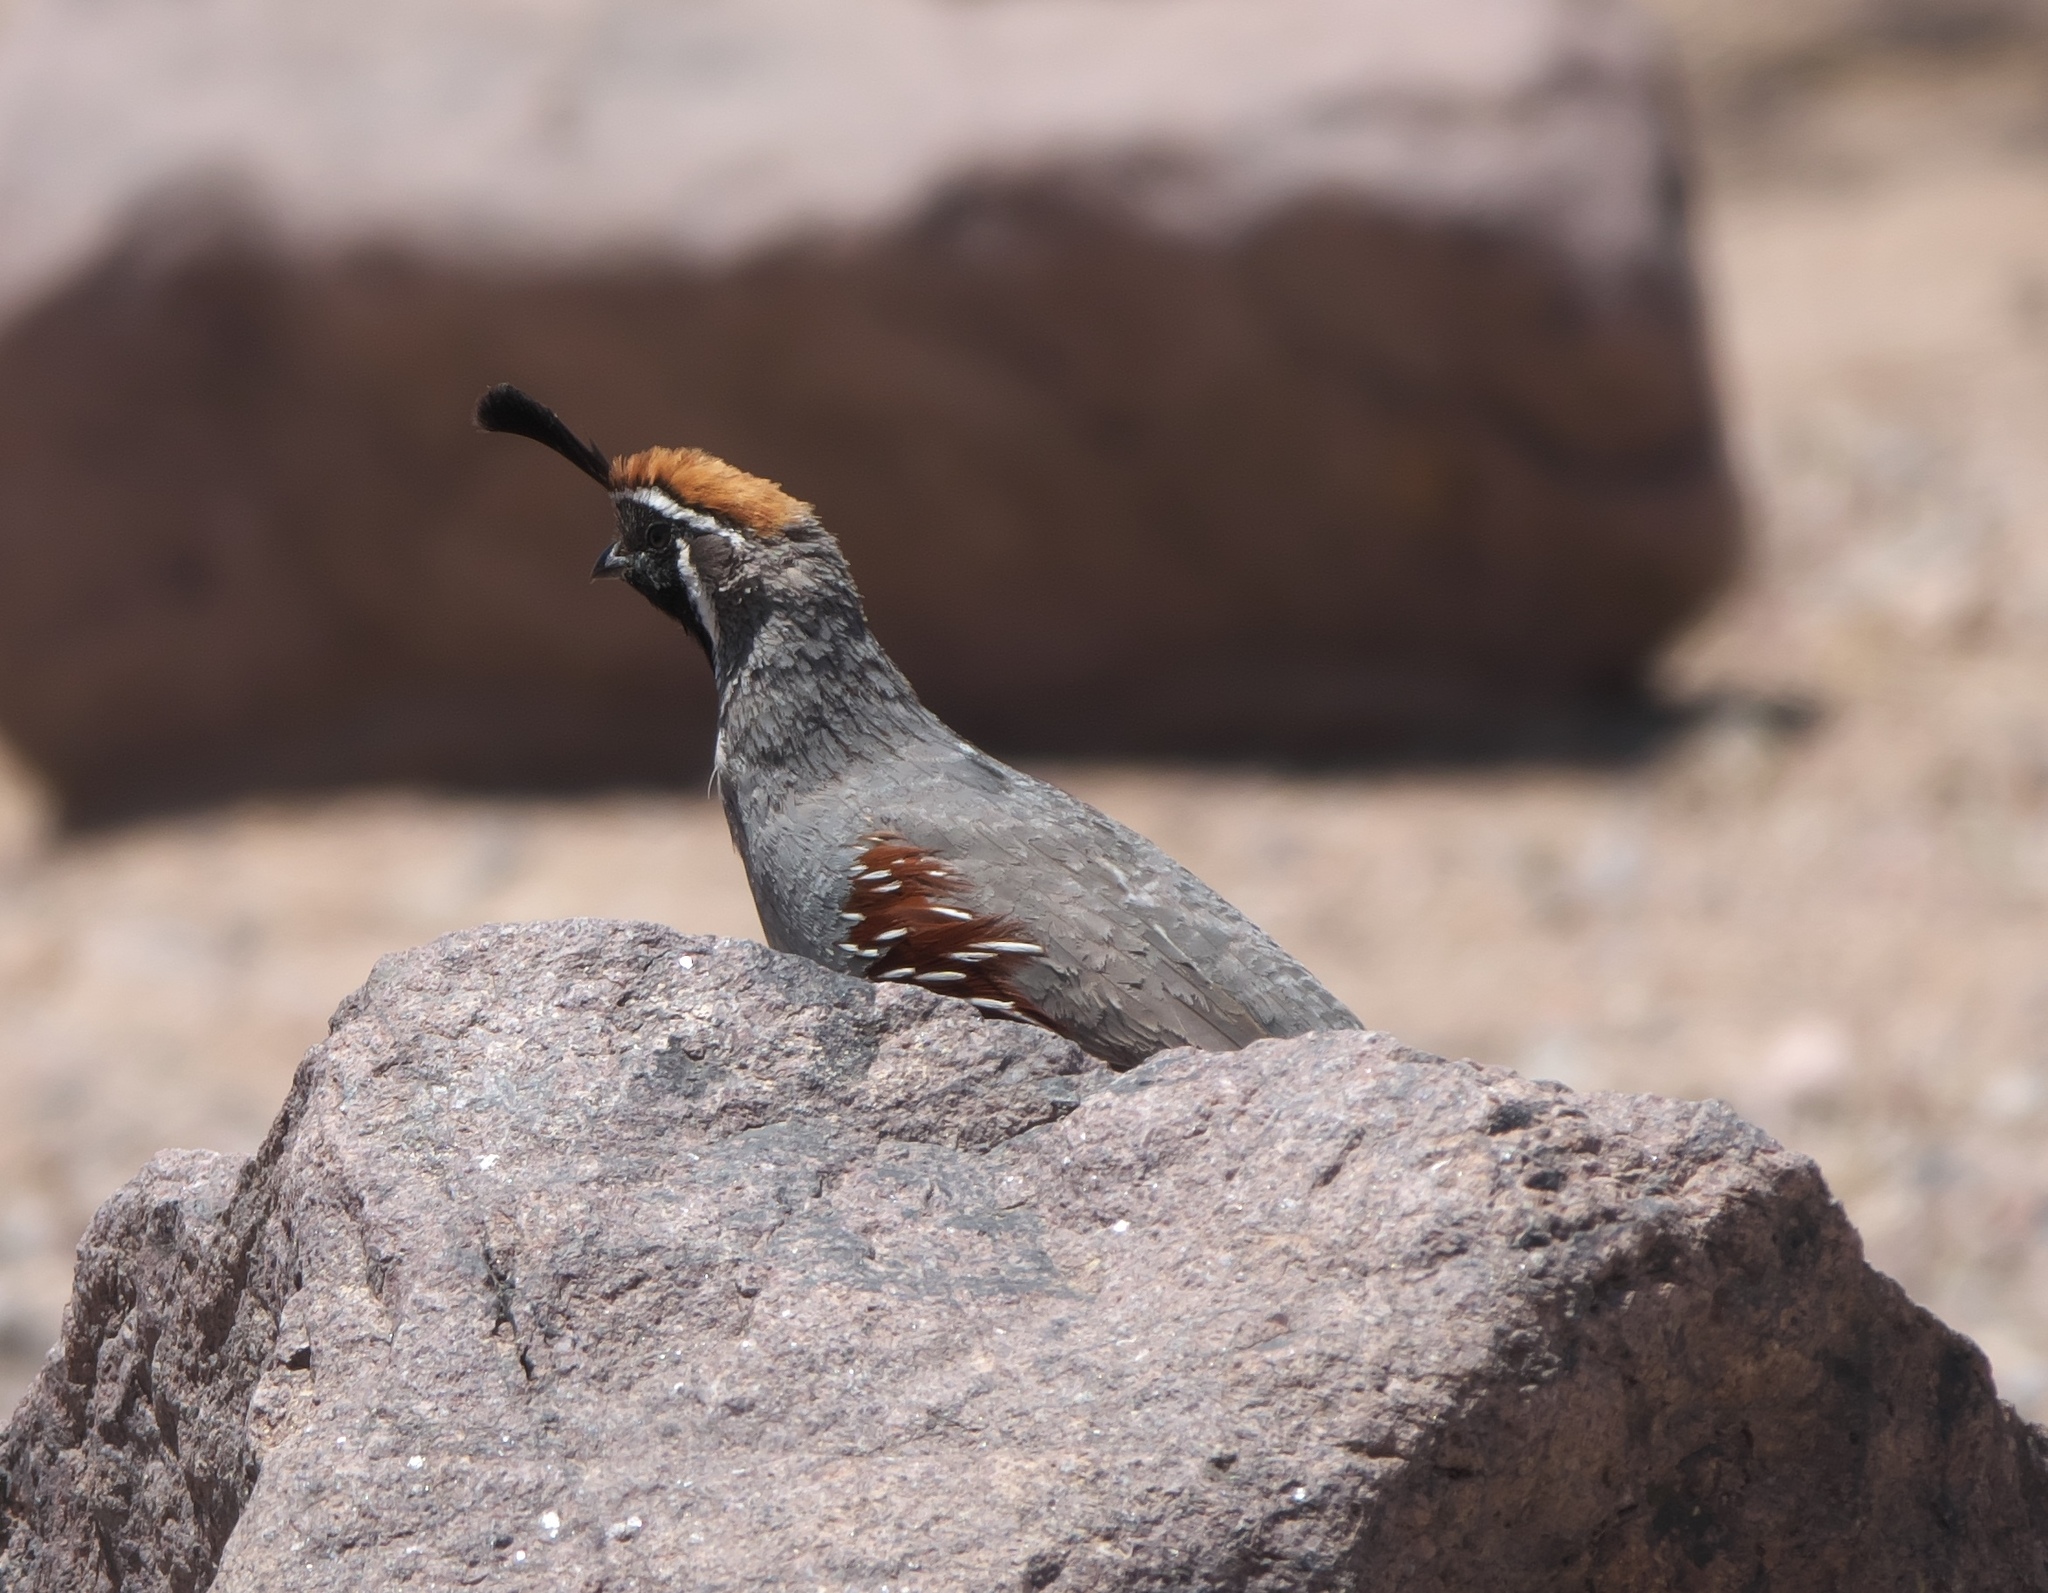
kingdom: Animalia
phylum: Chordata
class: Aves
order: Galliformes
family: Odontophoridae
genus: Callipepla
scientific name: Callipepla gambelii
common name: Gambel's quail
